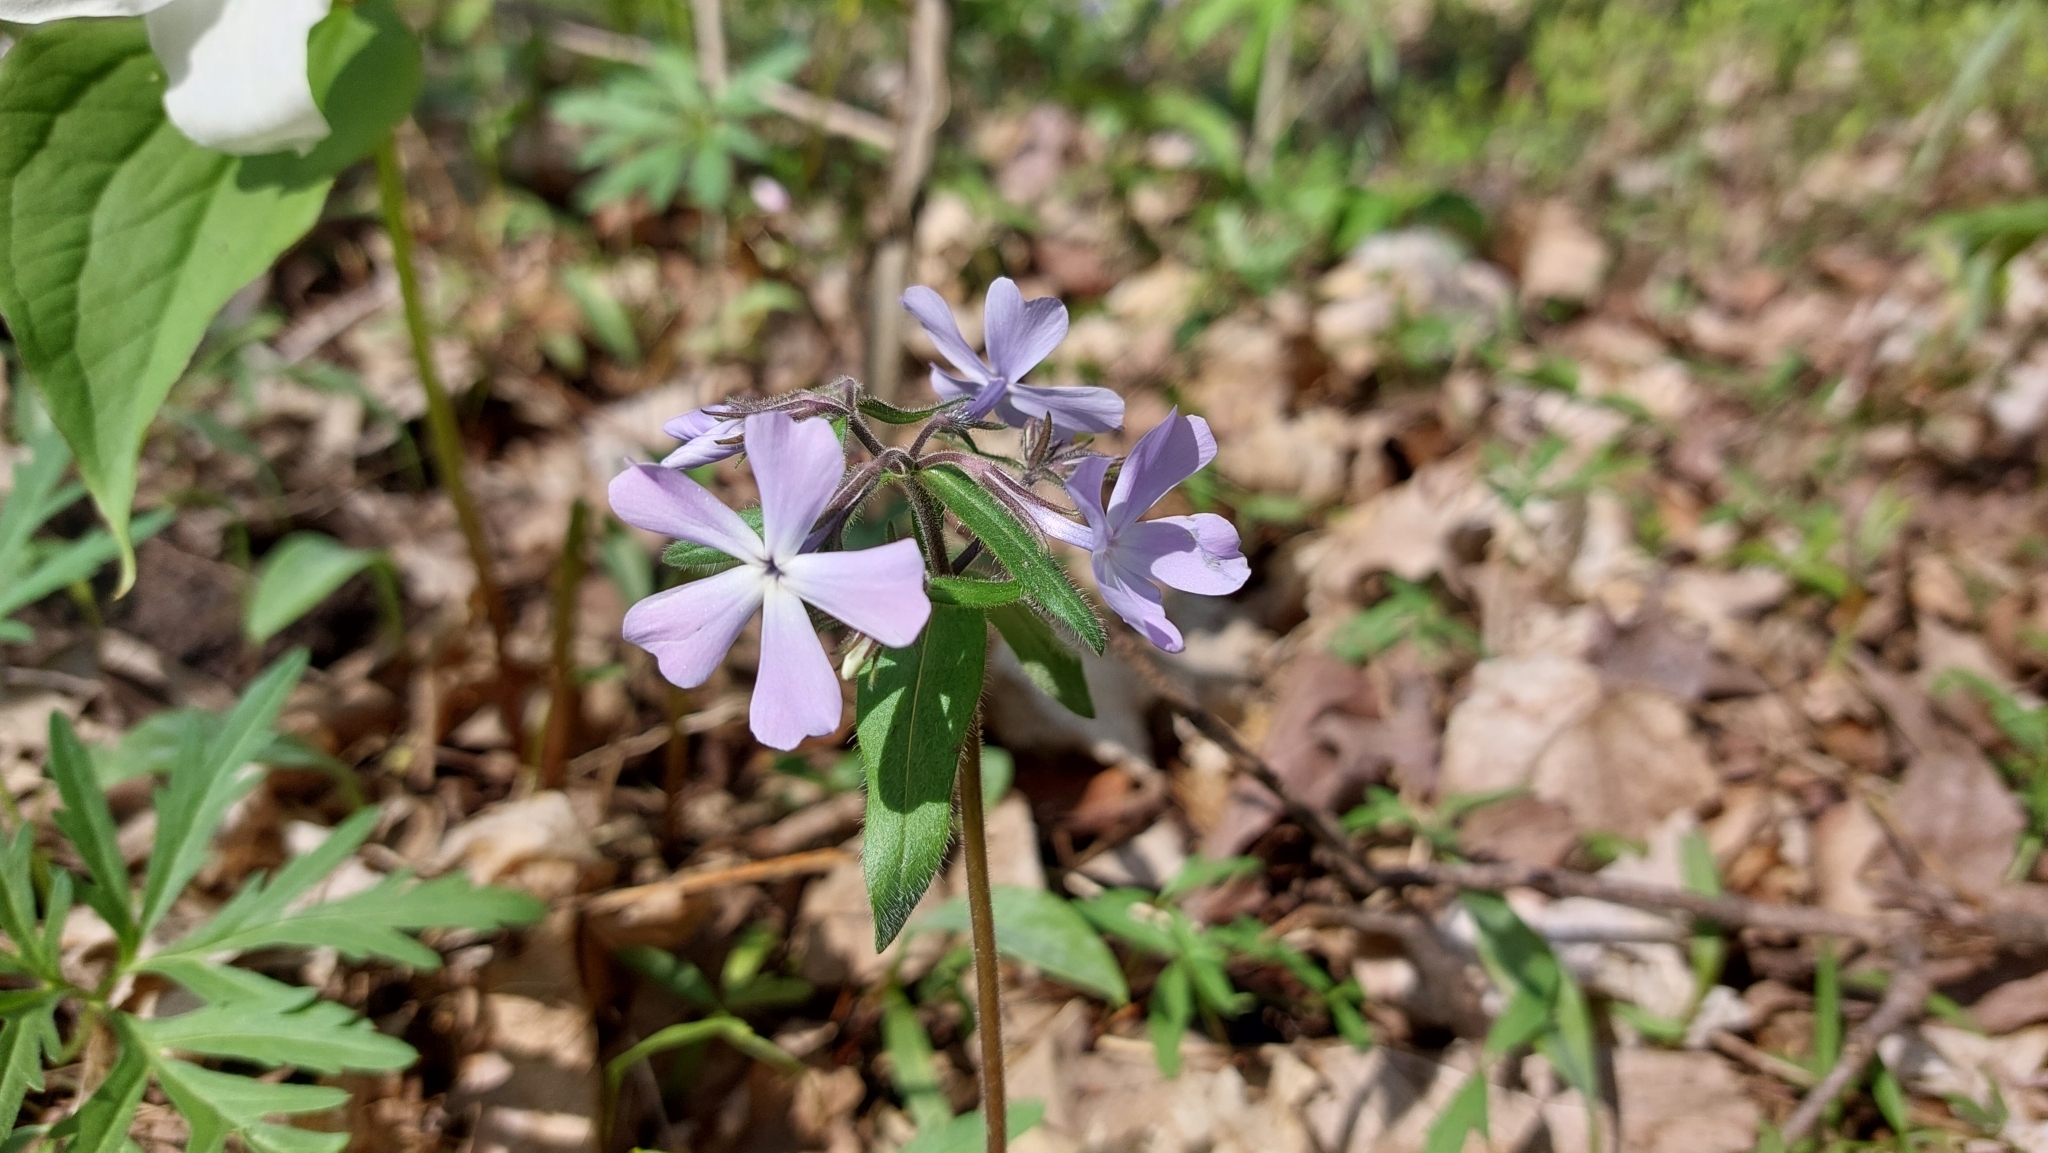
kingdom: Plantae
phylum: Tracheophyta
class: Magnoliopsida
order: Ericales
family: Polemoniaceae
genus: Phlox
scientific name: Phlox divaricata
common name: Blue phlox
